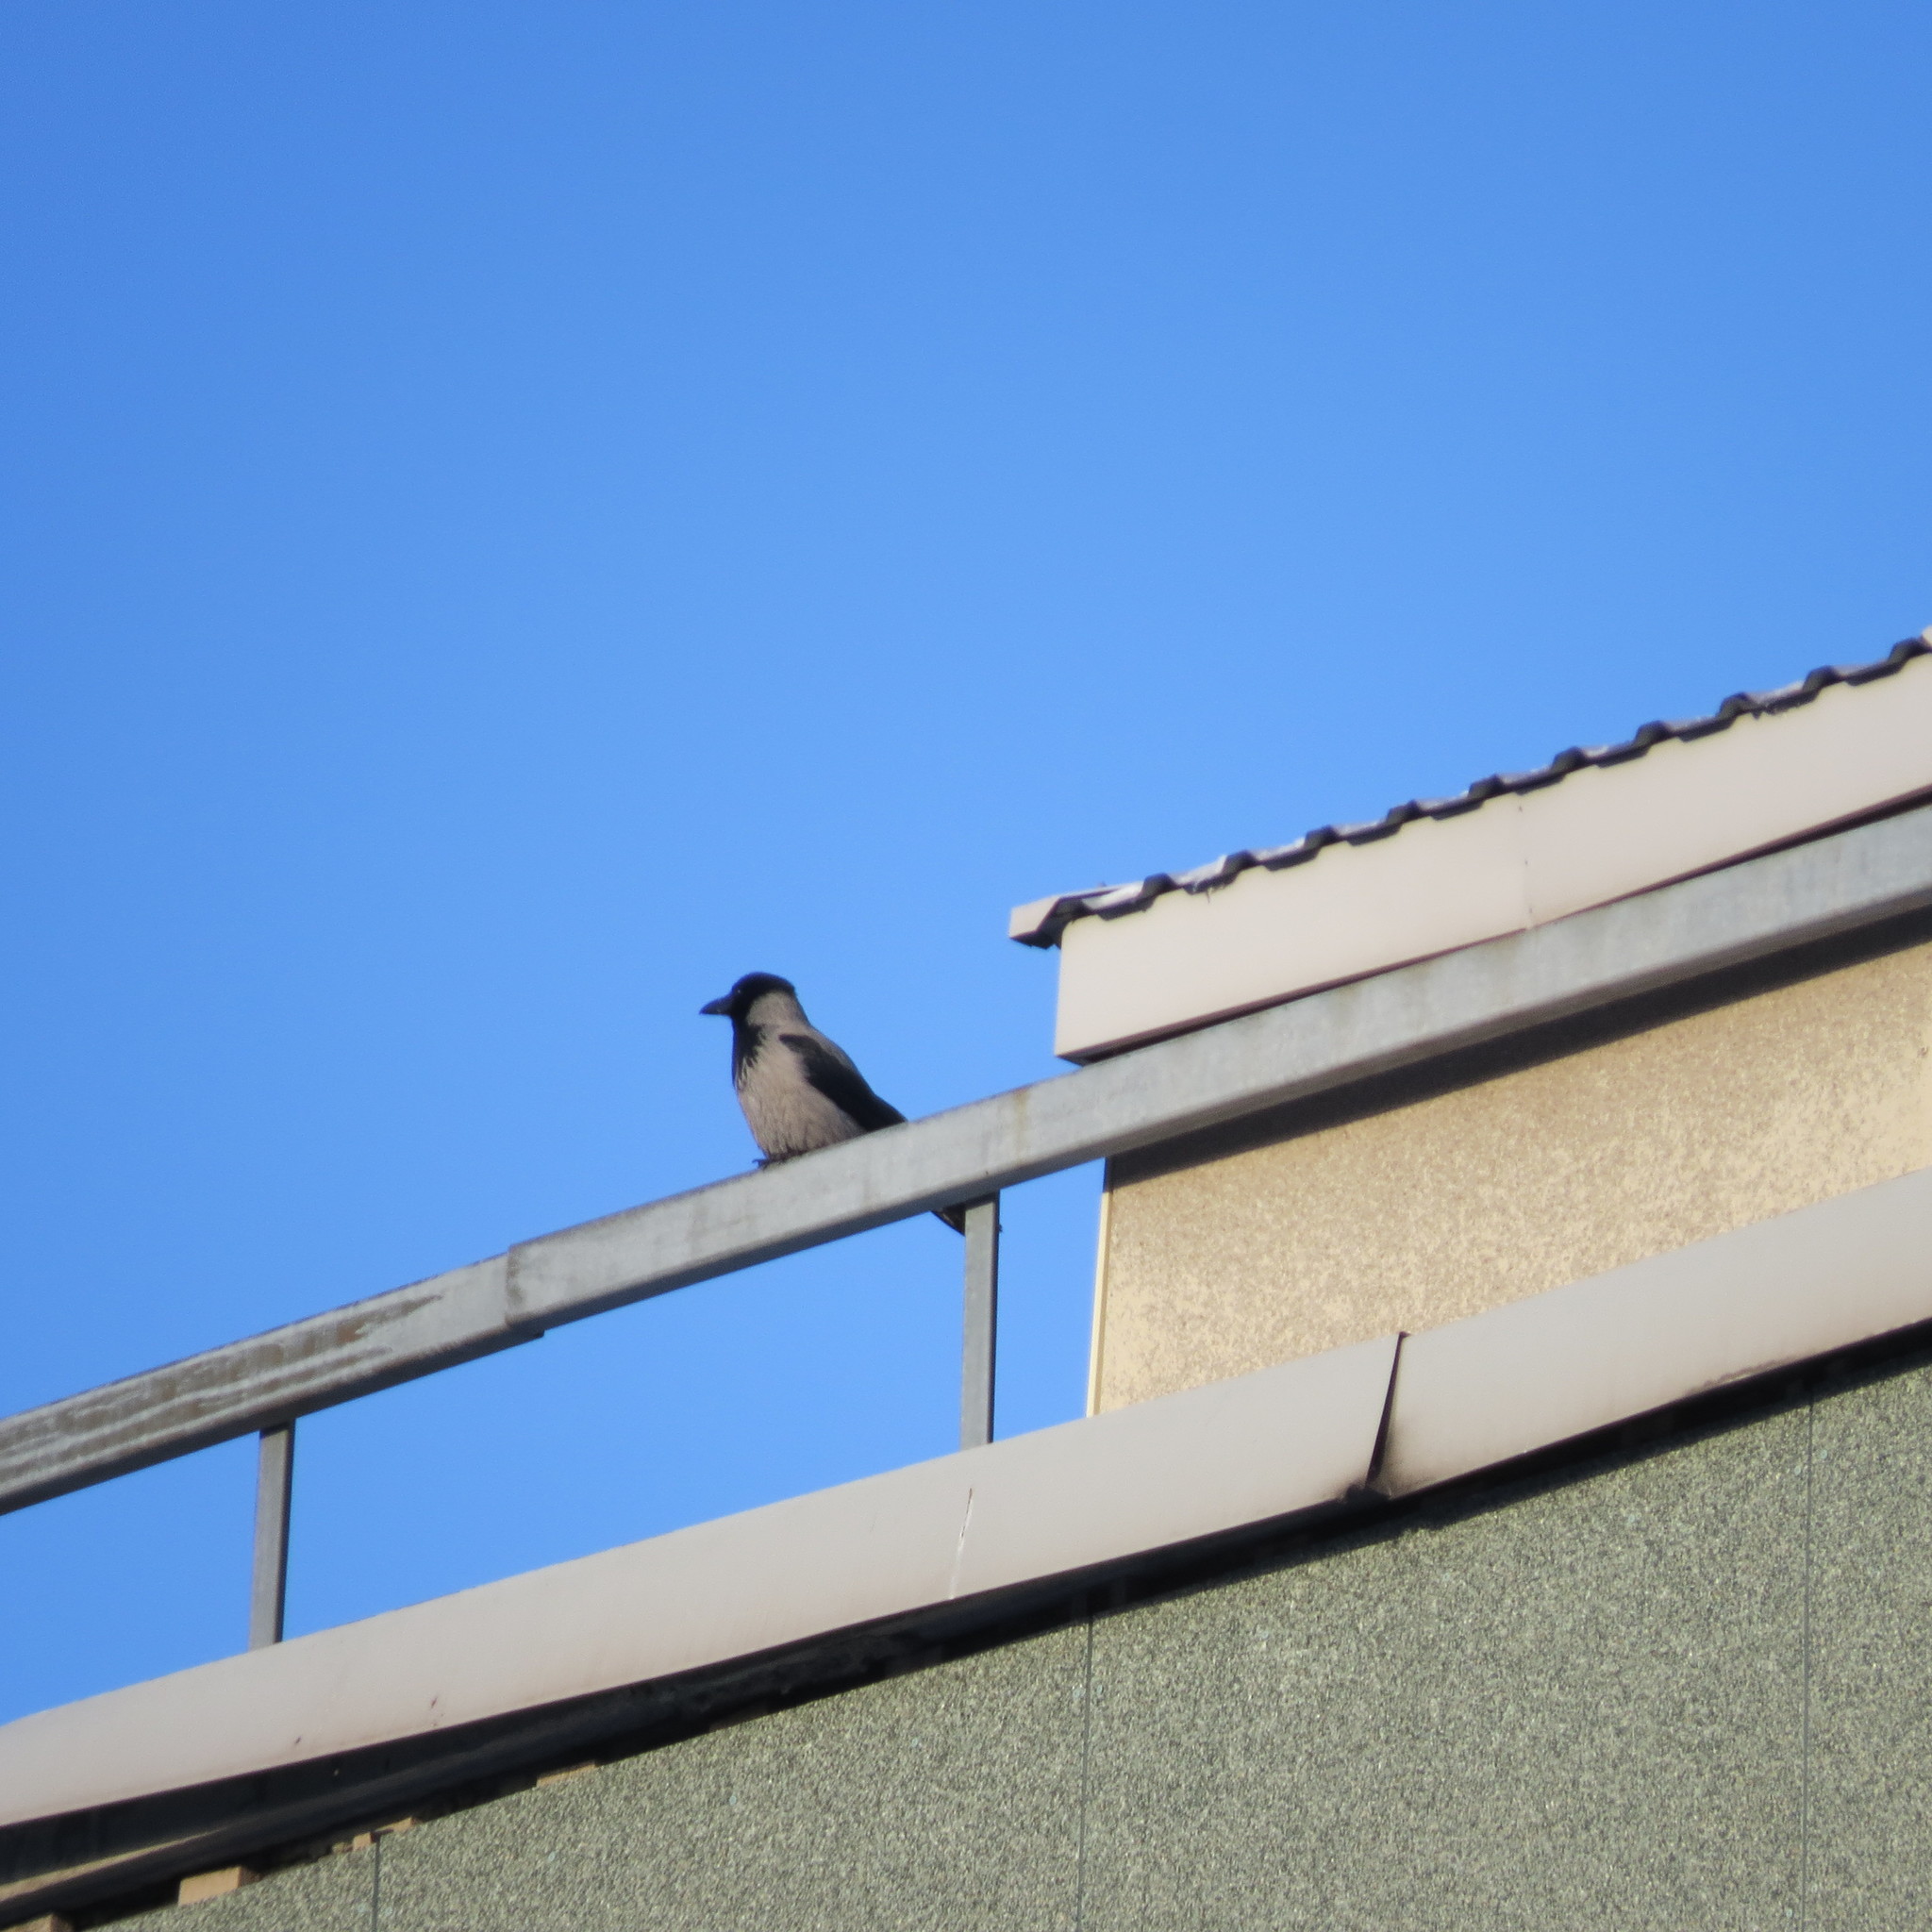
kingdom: Animalia
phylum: Chordata
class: Aves
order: Passeriformes
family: Corvidae
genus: Corvus
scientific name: Corvus cornix
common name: Hooded crow
